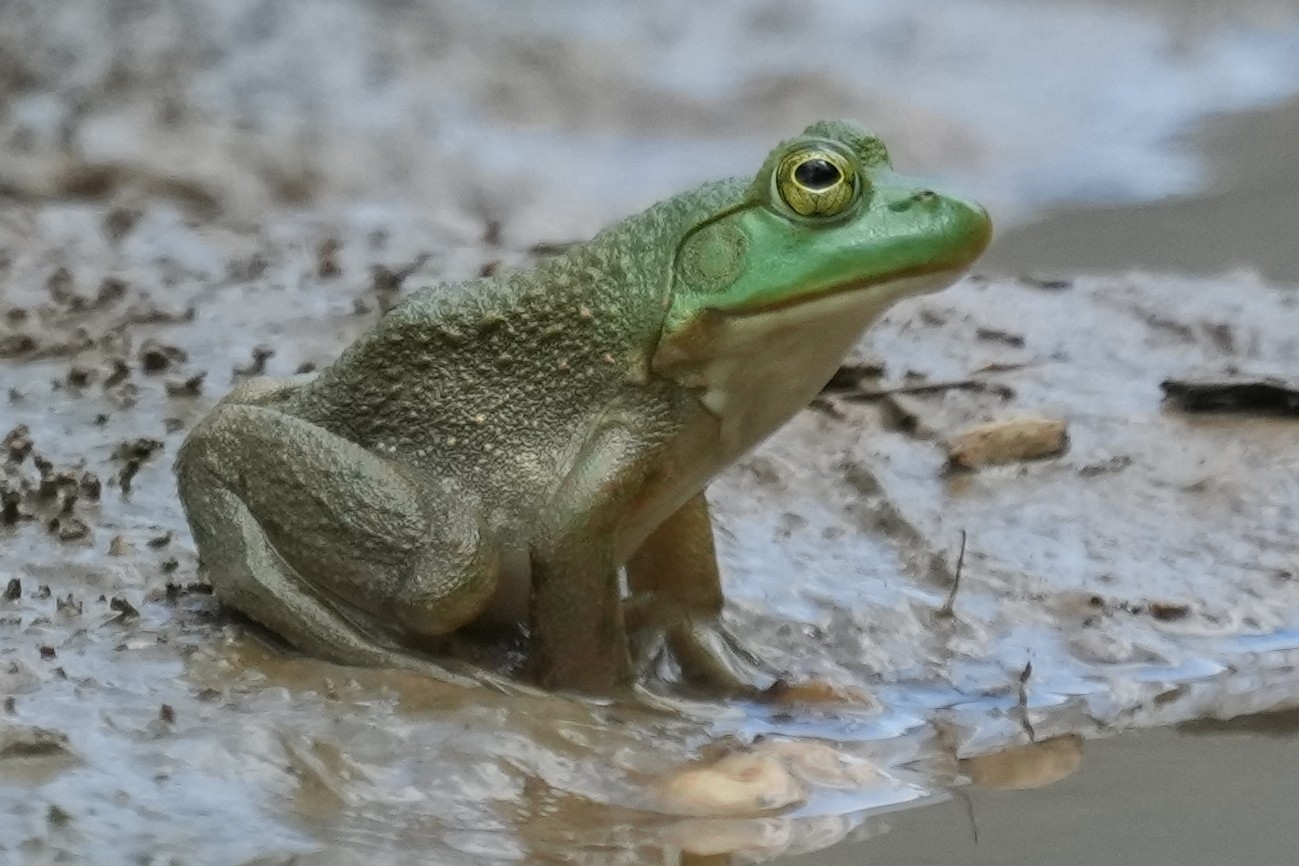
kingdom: Animalia
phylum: Chordata
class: Amphibia
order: Anura
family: Ranidae
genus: Lithobates
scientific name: Lithobates catesbeianus
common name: American bullfrog
